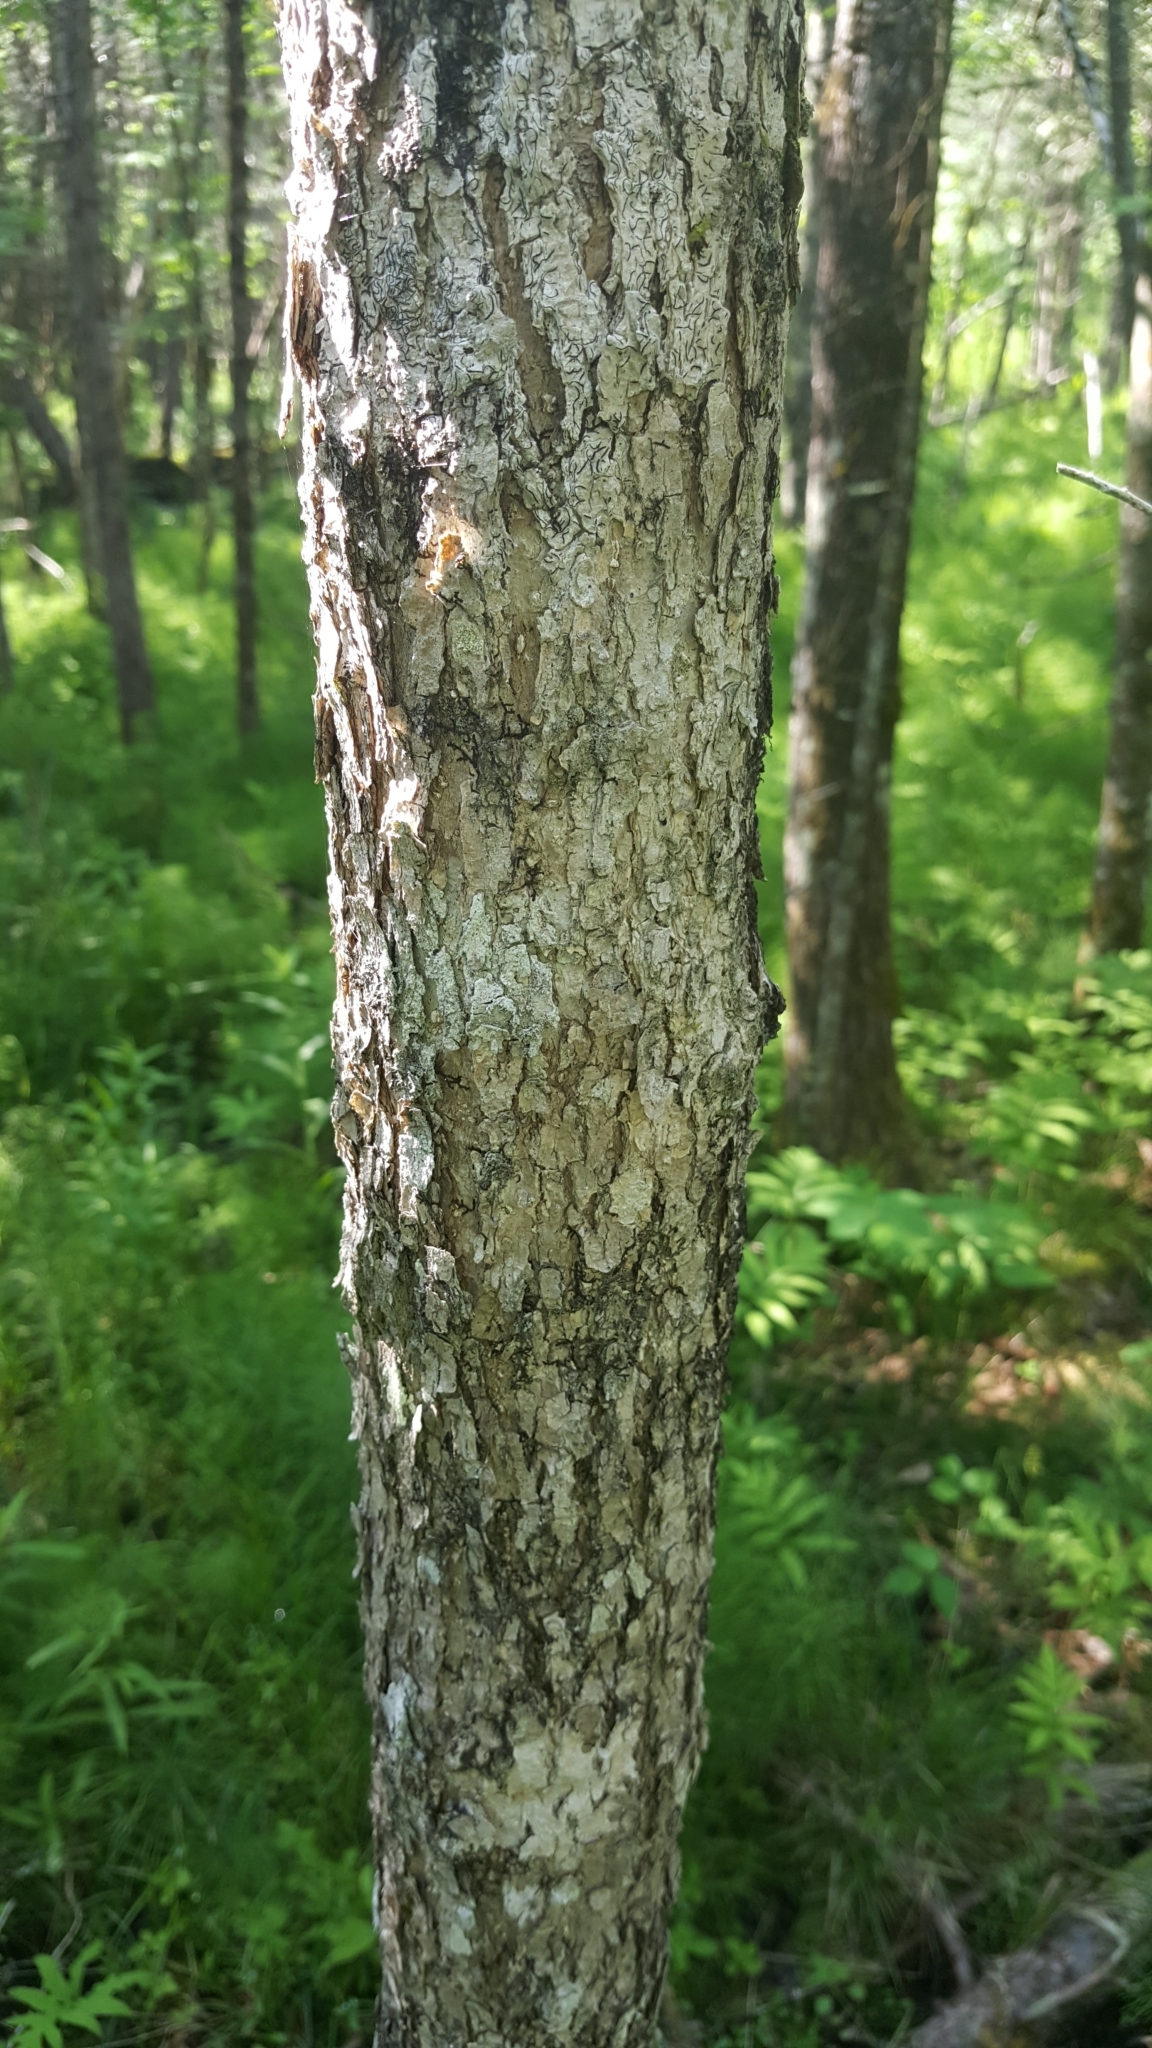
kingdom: Plantae
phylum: Tracheophyta
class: Magnoliopsida
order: Lamiales
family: Oleaceae
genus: Fraxinus
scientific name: Fraxinus nigra
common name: Black ash
